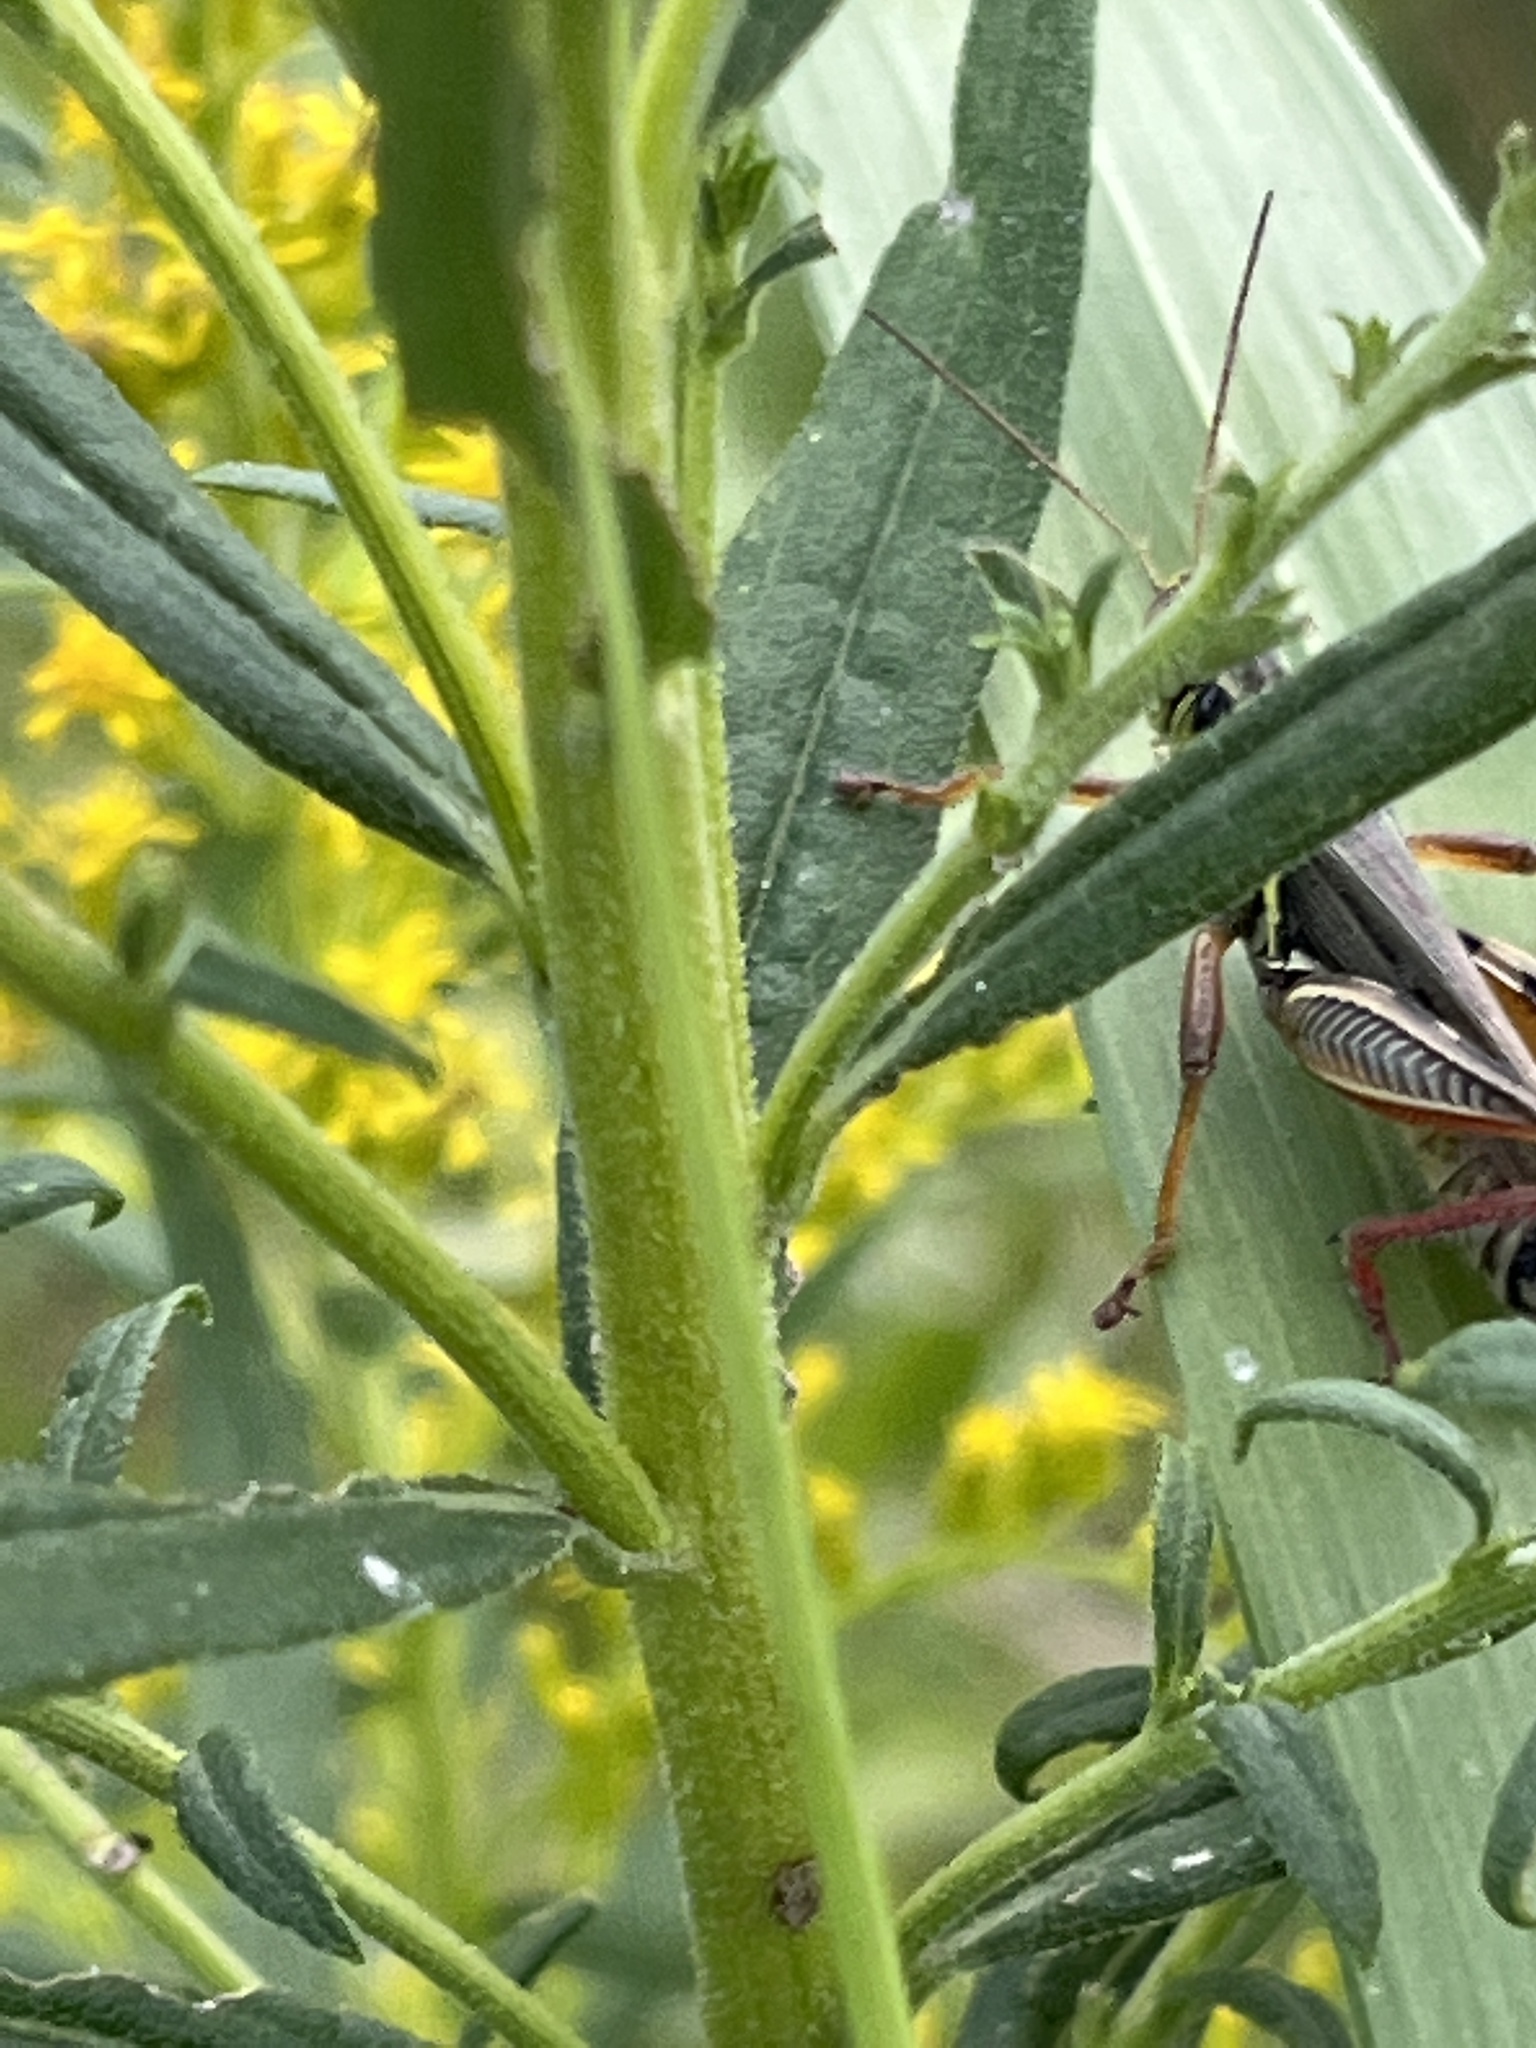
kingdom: Animalia
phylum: Arthropoda
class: Insecta
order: Orthoptera
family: Acrididae
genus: Melanoplus
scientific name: Melanoplus femurrubrum
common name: Red-legged grasshopper
